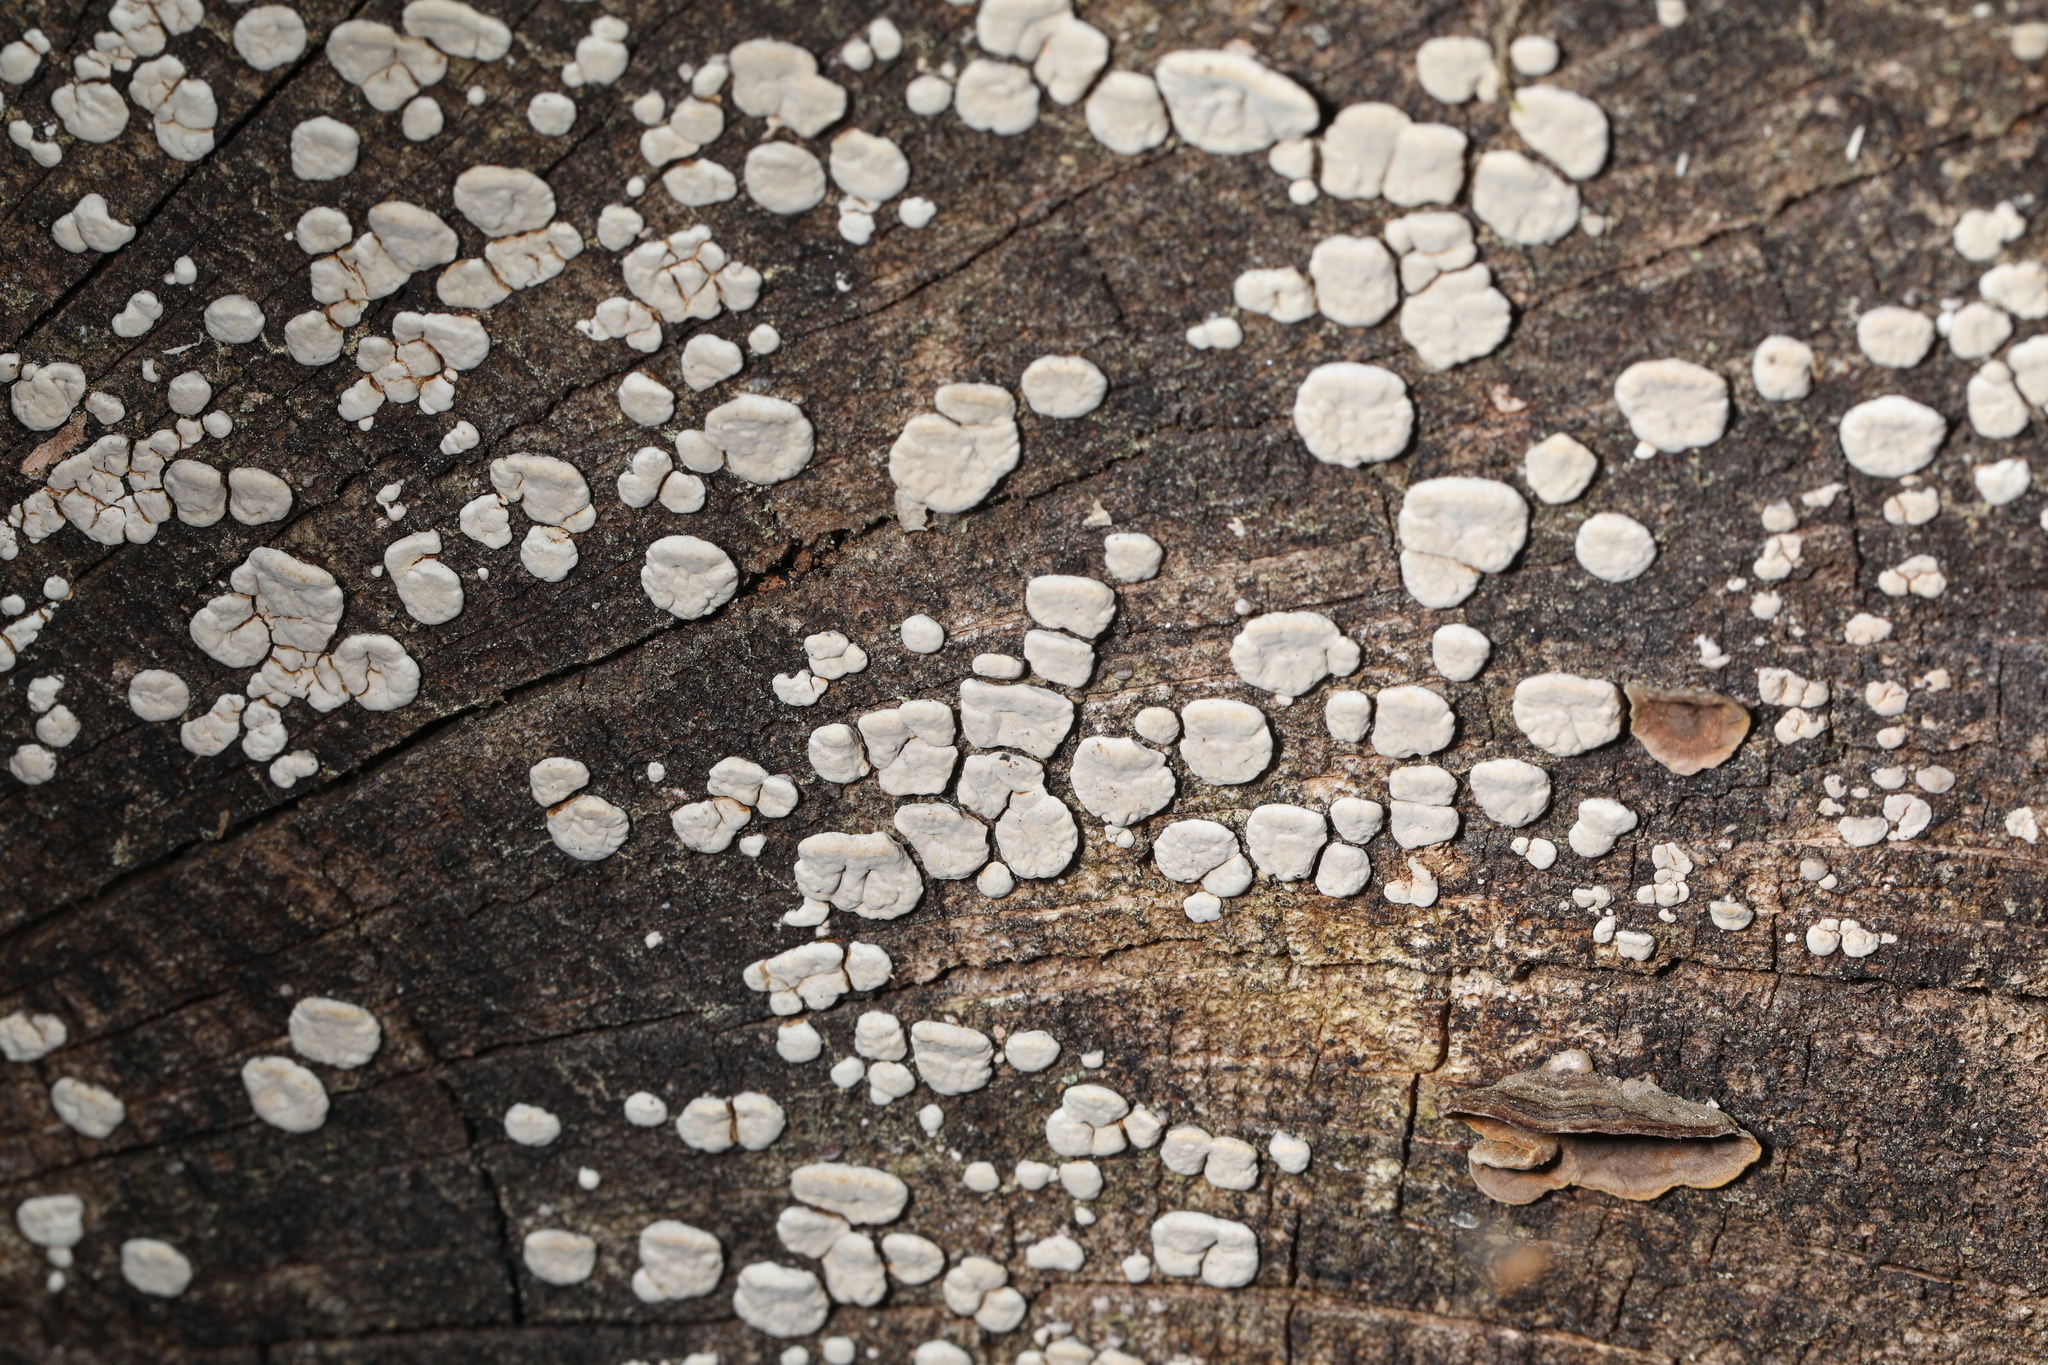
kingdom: Fungi
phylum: Basidiomycota
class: Agaricomycetes
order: Russulales
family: Stereaceae
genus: Xylobolus
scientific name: Xylobolus frustulatus
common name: Ceramic parchment
